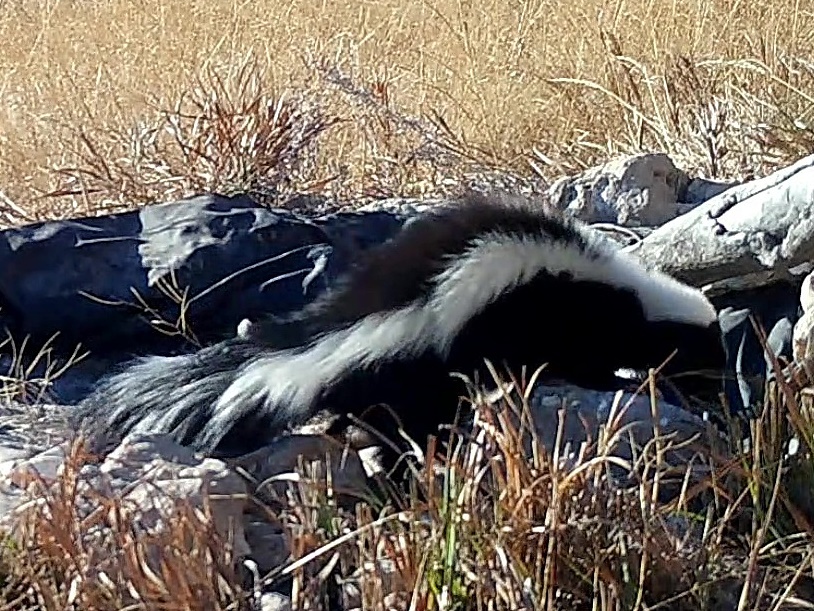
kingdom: Animalia
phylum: Chordata
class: Mammalia
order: Carnivora
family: Mephitidae
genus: Mephitis
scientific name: Mephitis mephitis
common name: Striped skunk
